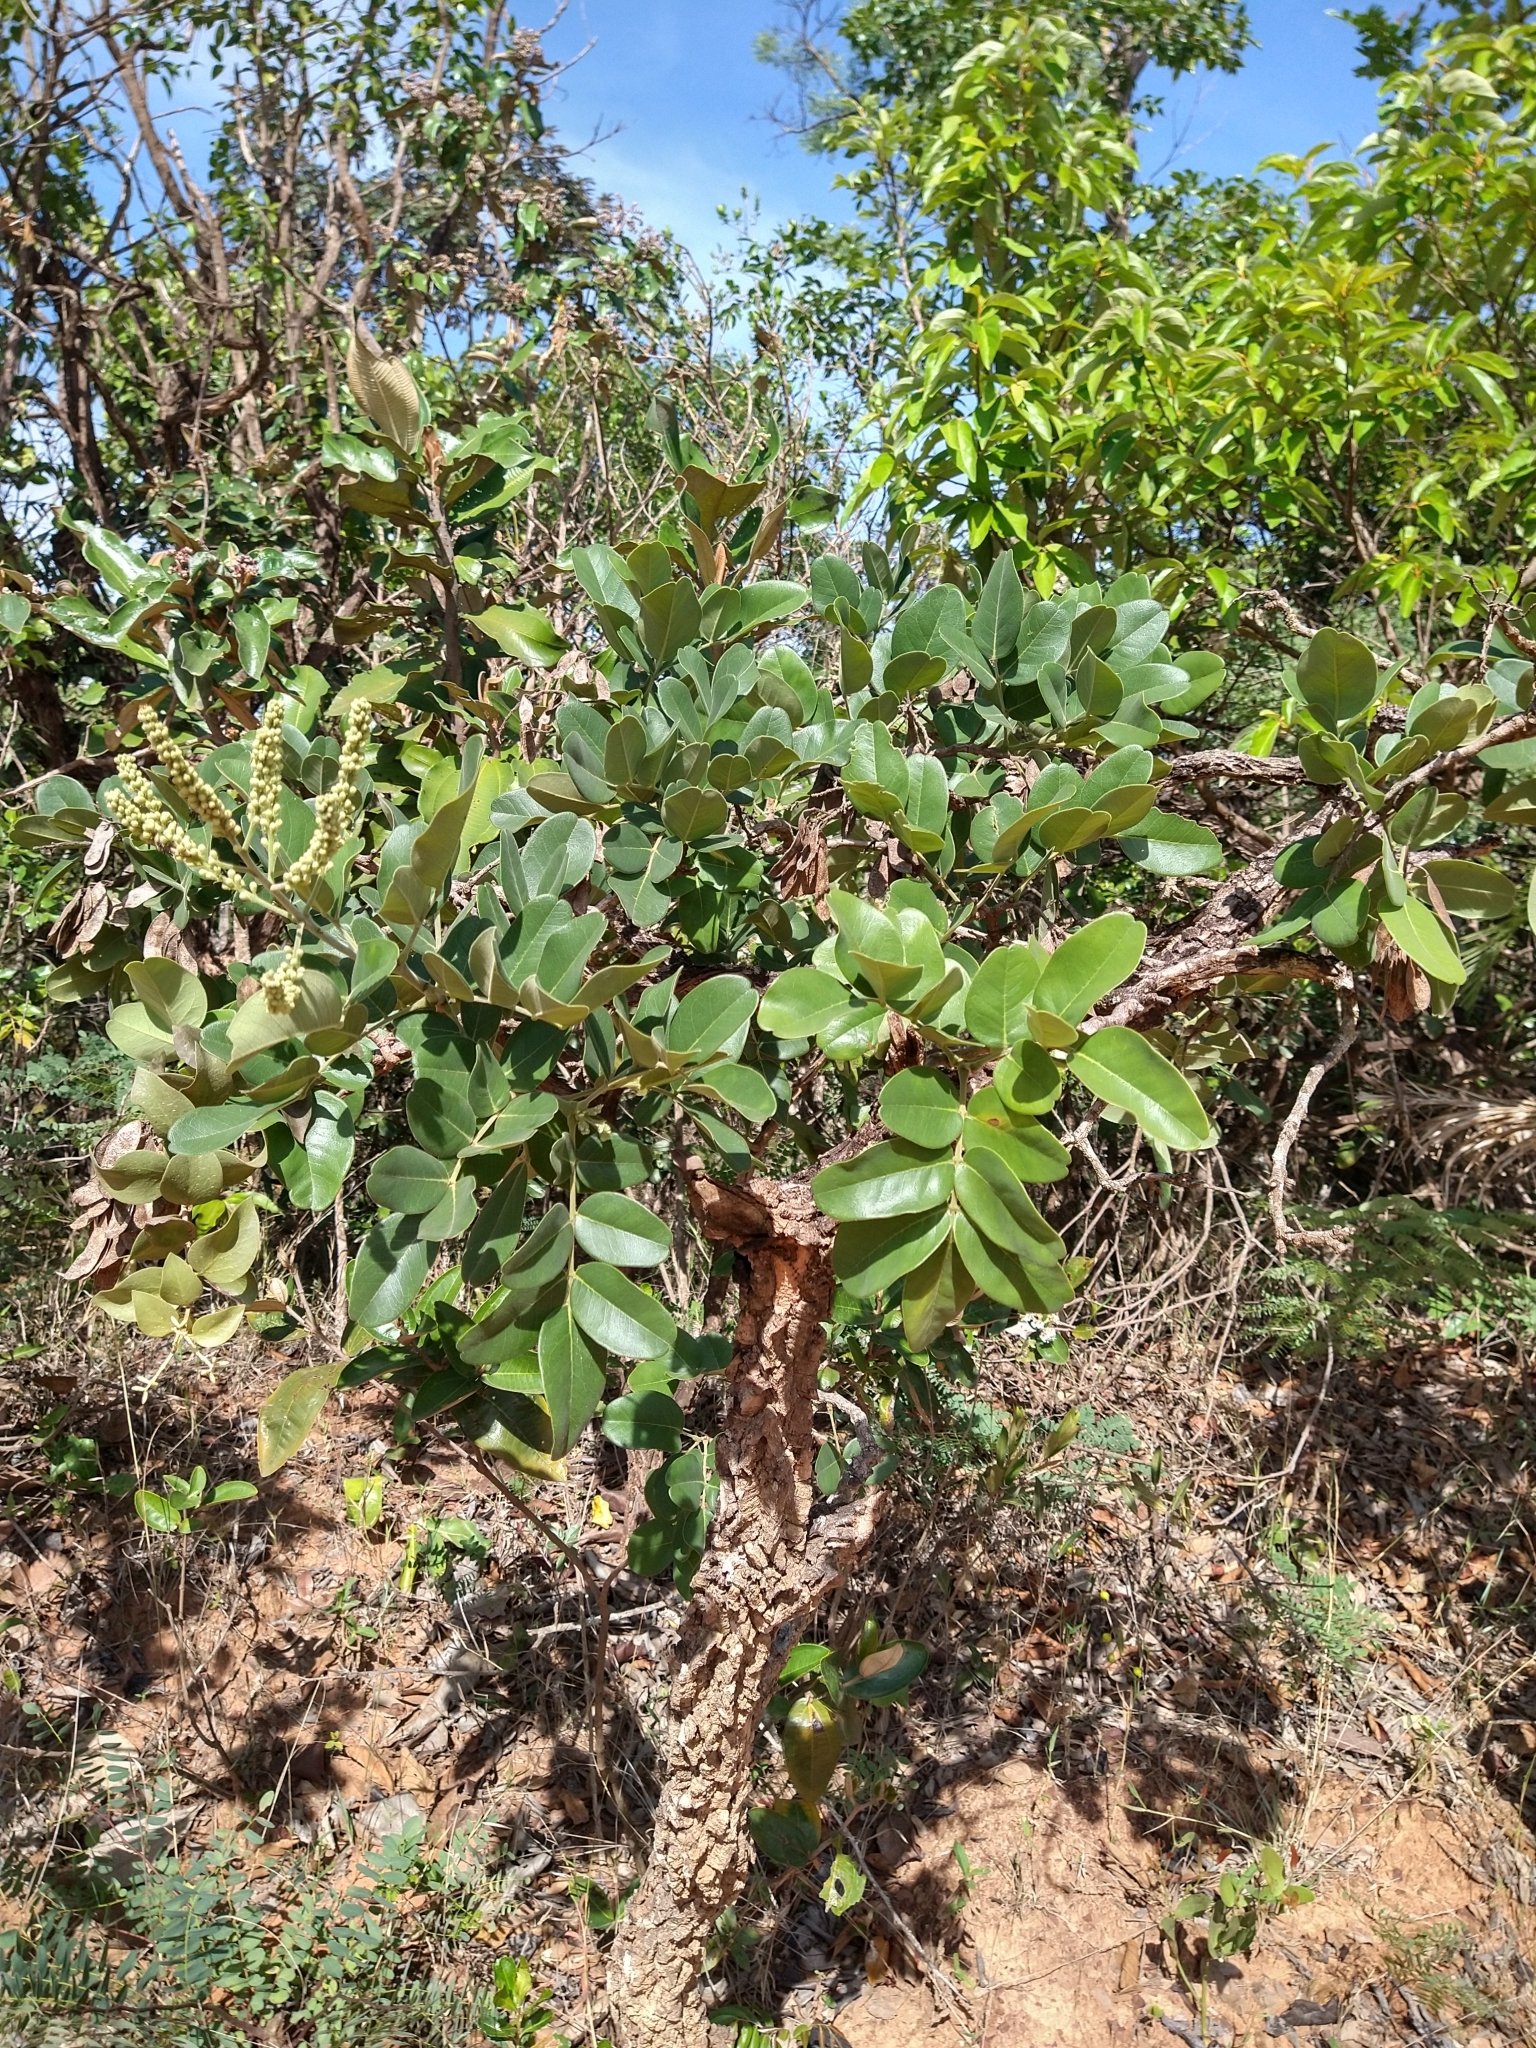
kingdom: Plantae
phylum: Tracheophyta
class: Magnoliopsida
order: Fabales
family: Fabaceae
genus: Leptolobium
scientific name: Leptolobium dasycarpum
